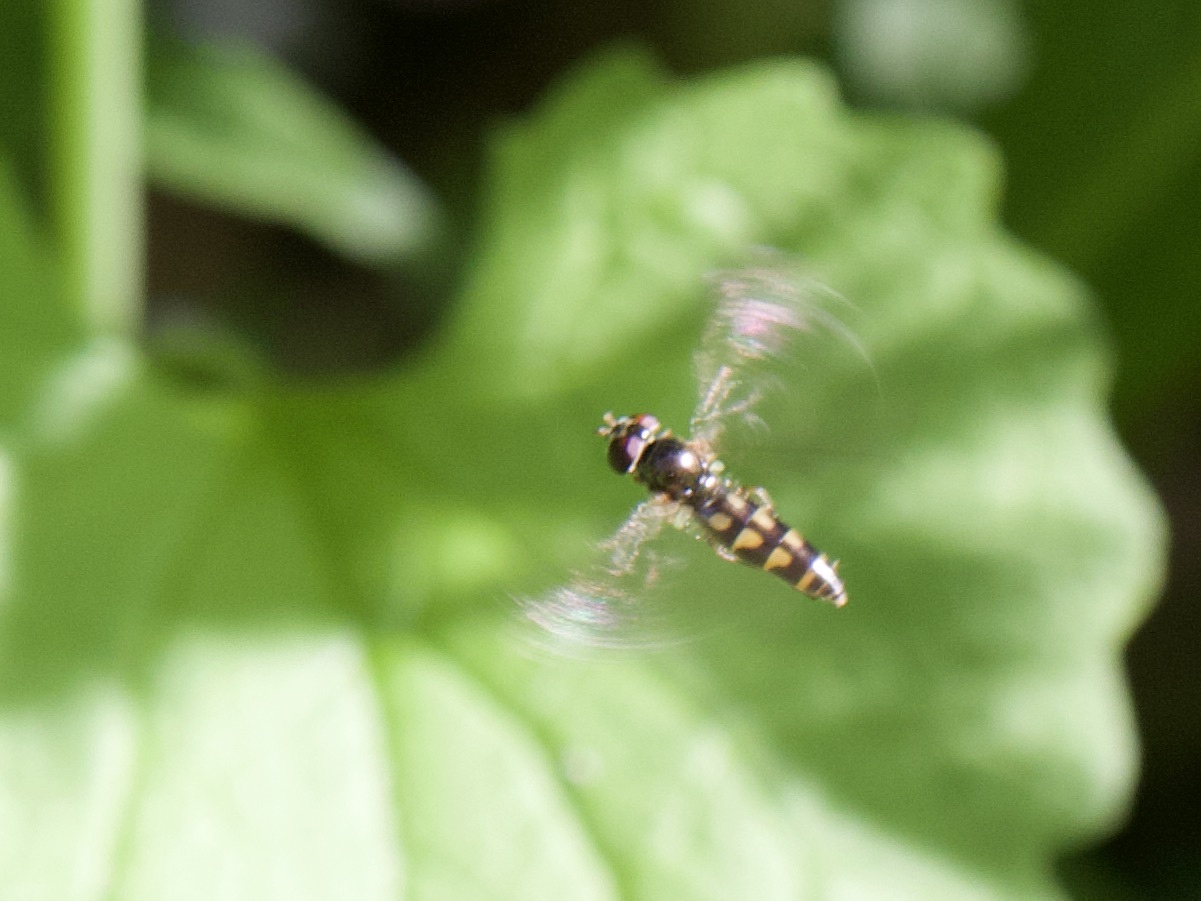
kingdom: Animalia
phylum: Arthropoda
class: Insecta
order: Diptera
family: Syrphidae
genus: Melanostoma
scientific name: Melanostoma scalare
